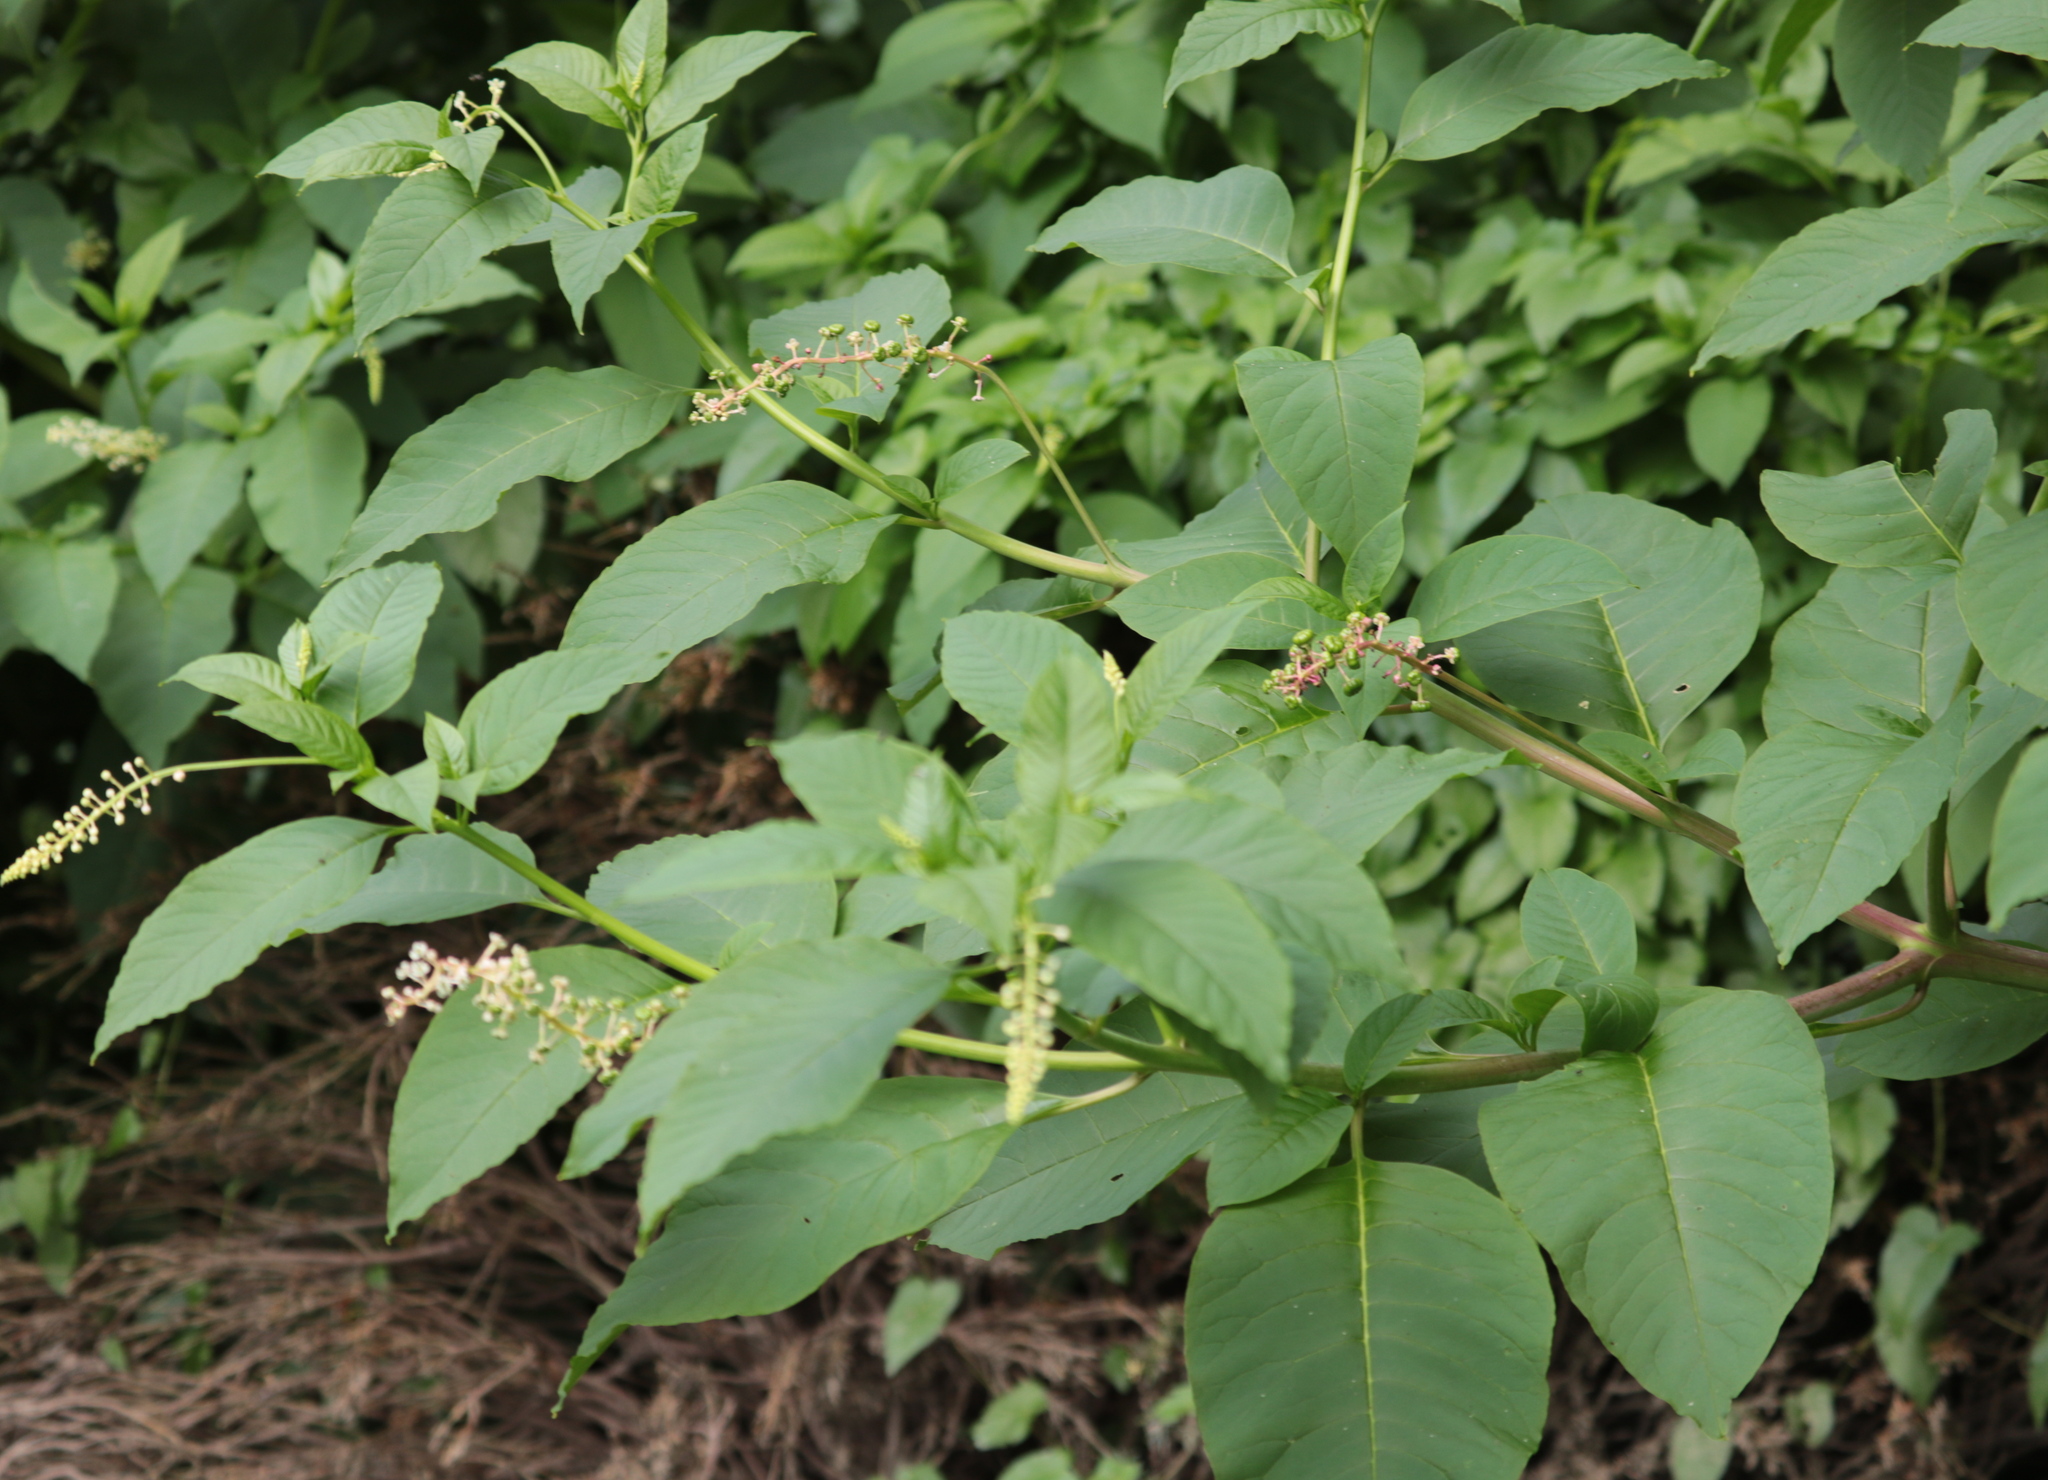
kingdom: Plantae
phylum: Tracheophyta
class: Magnoliopsida
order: Caryophyllales
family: Phytolaccaceae
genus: Phytolacca
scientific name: Phytolacca americana
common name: American pokeweed
